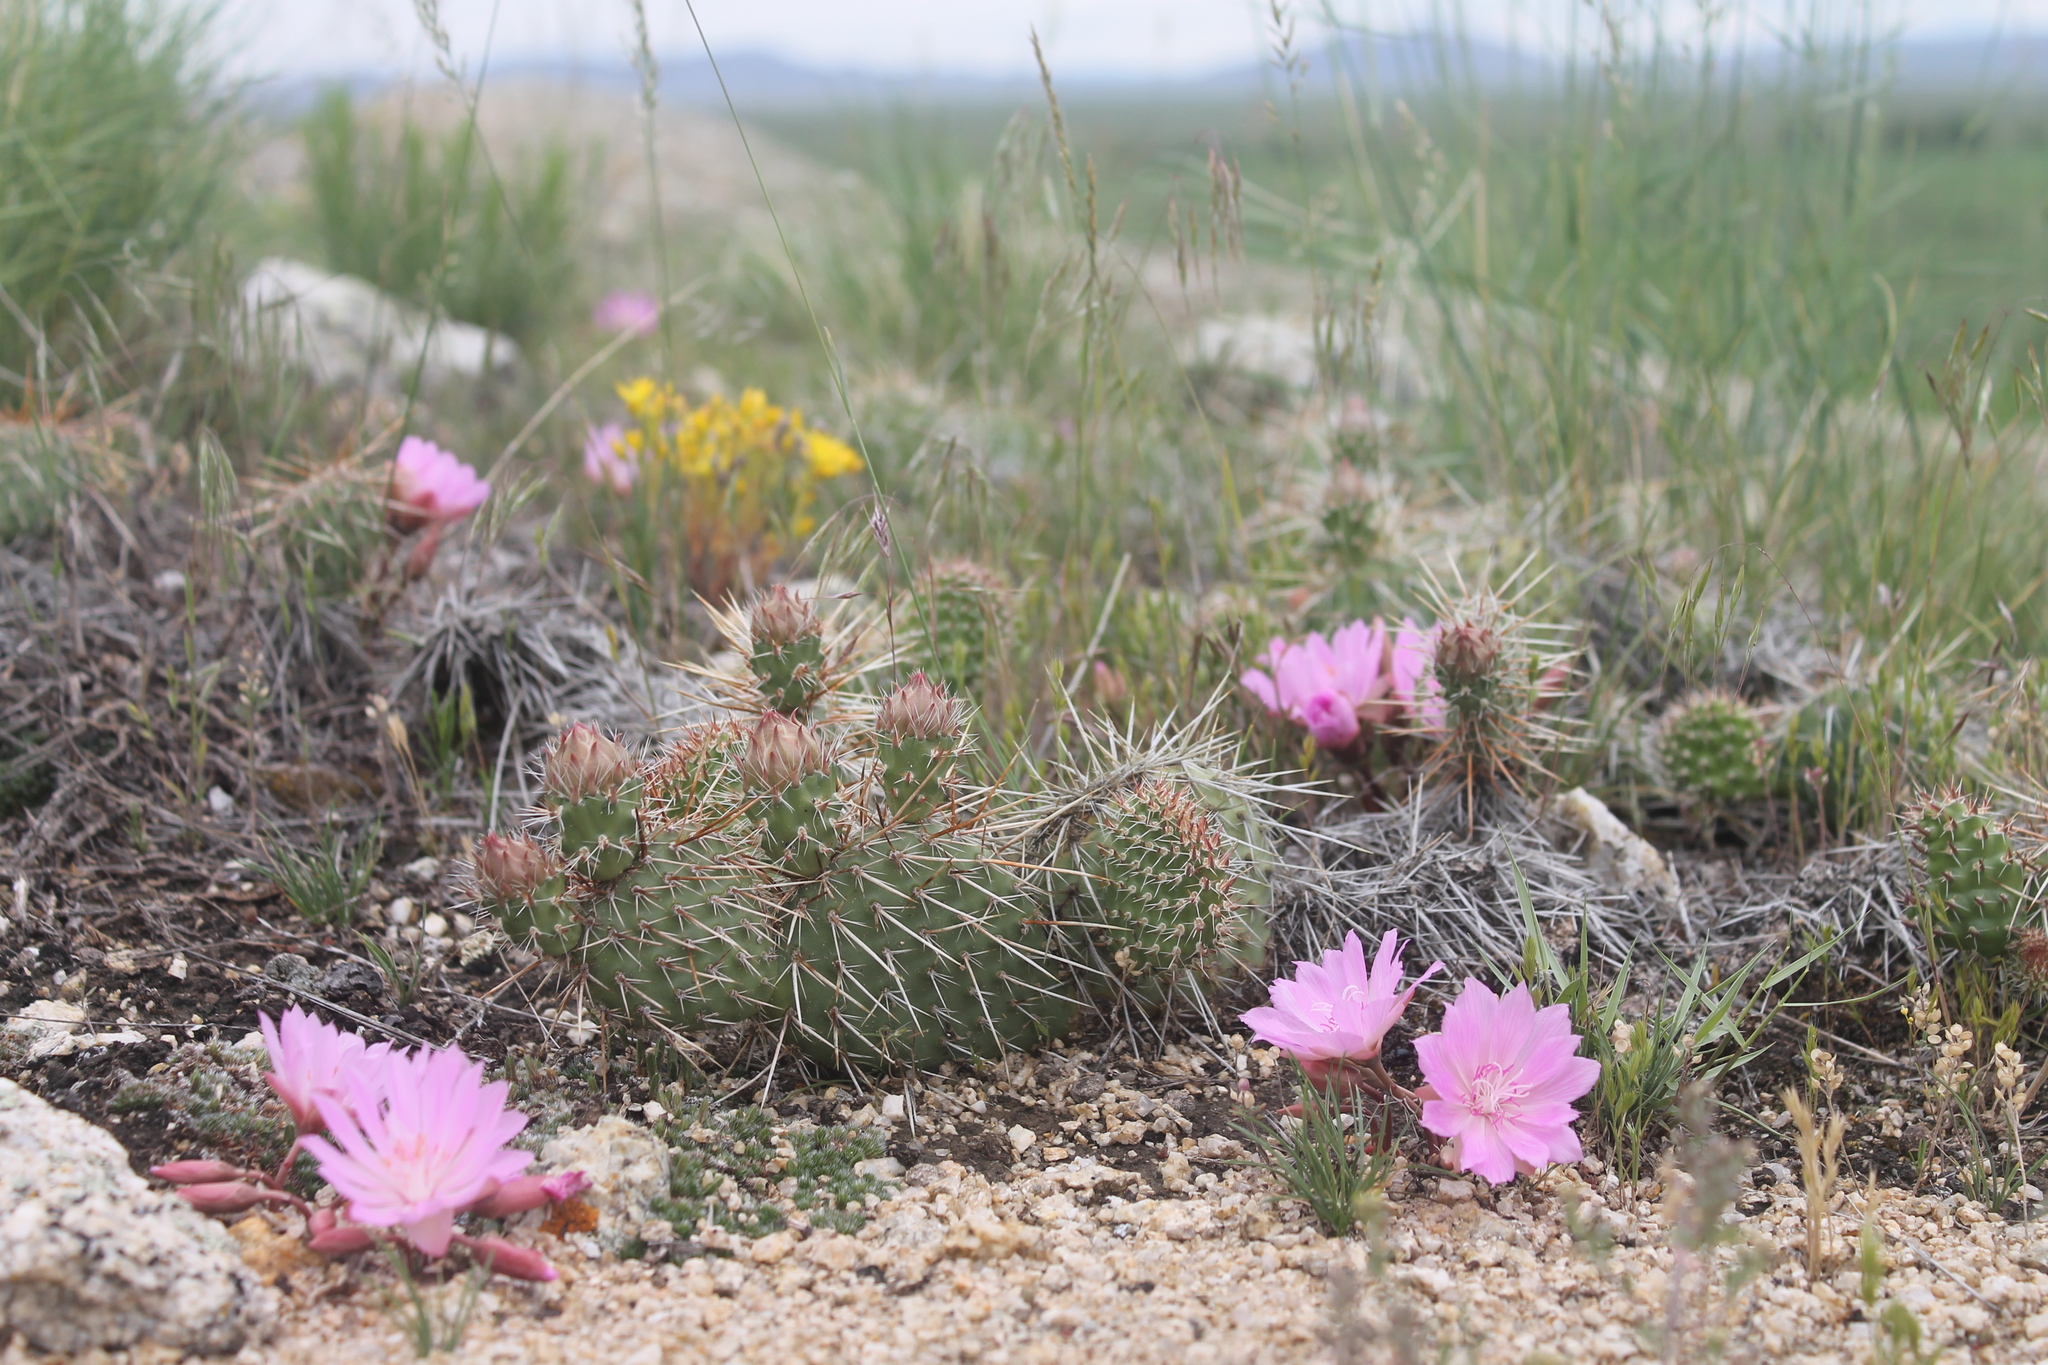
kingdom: Plantae
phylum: Tracheophyta
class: Magnoliopsida
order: Caryophyllales
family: Montiaceae
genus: Lewisia
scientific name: Lewisia rediviva
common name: Bitter-root
